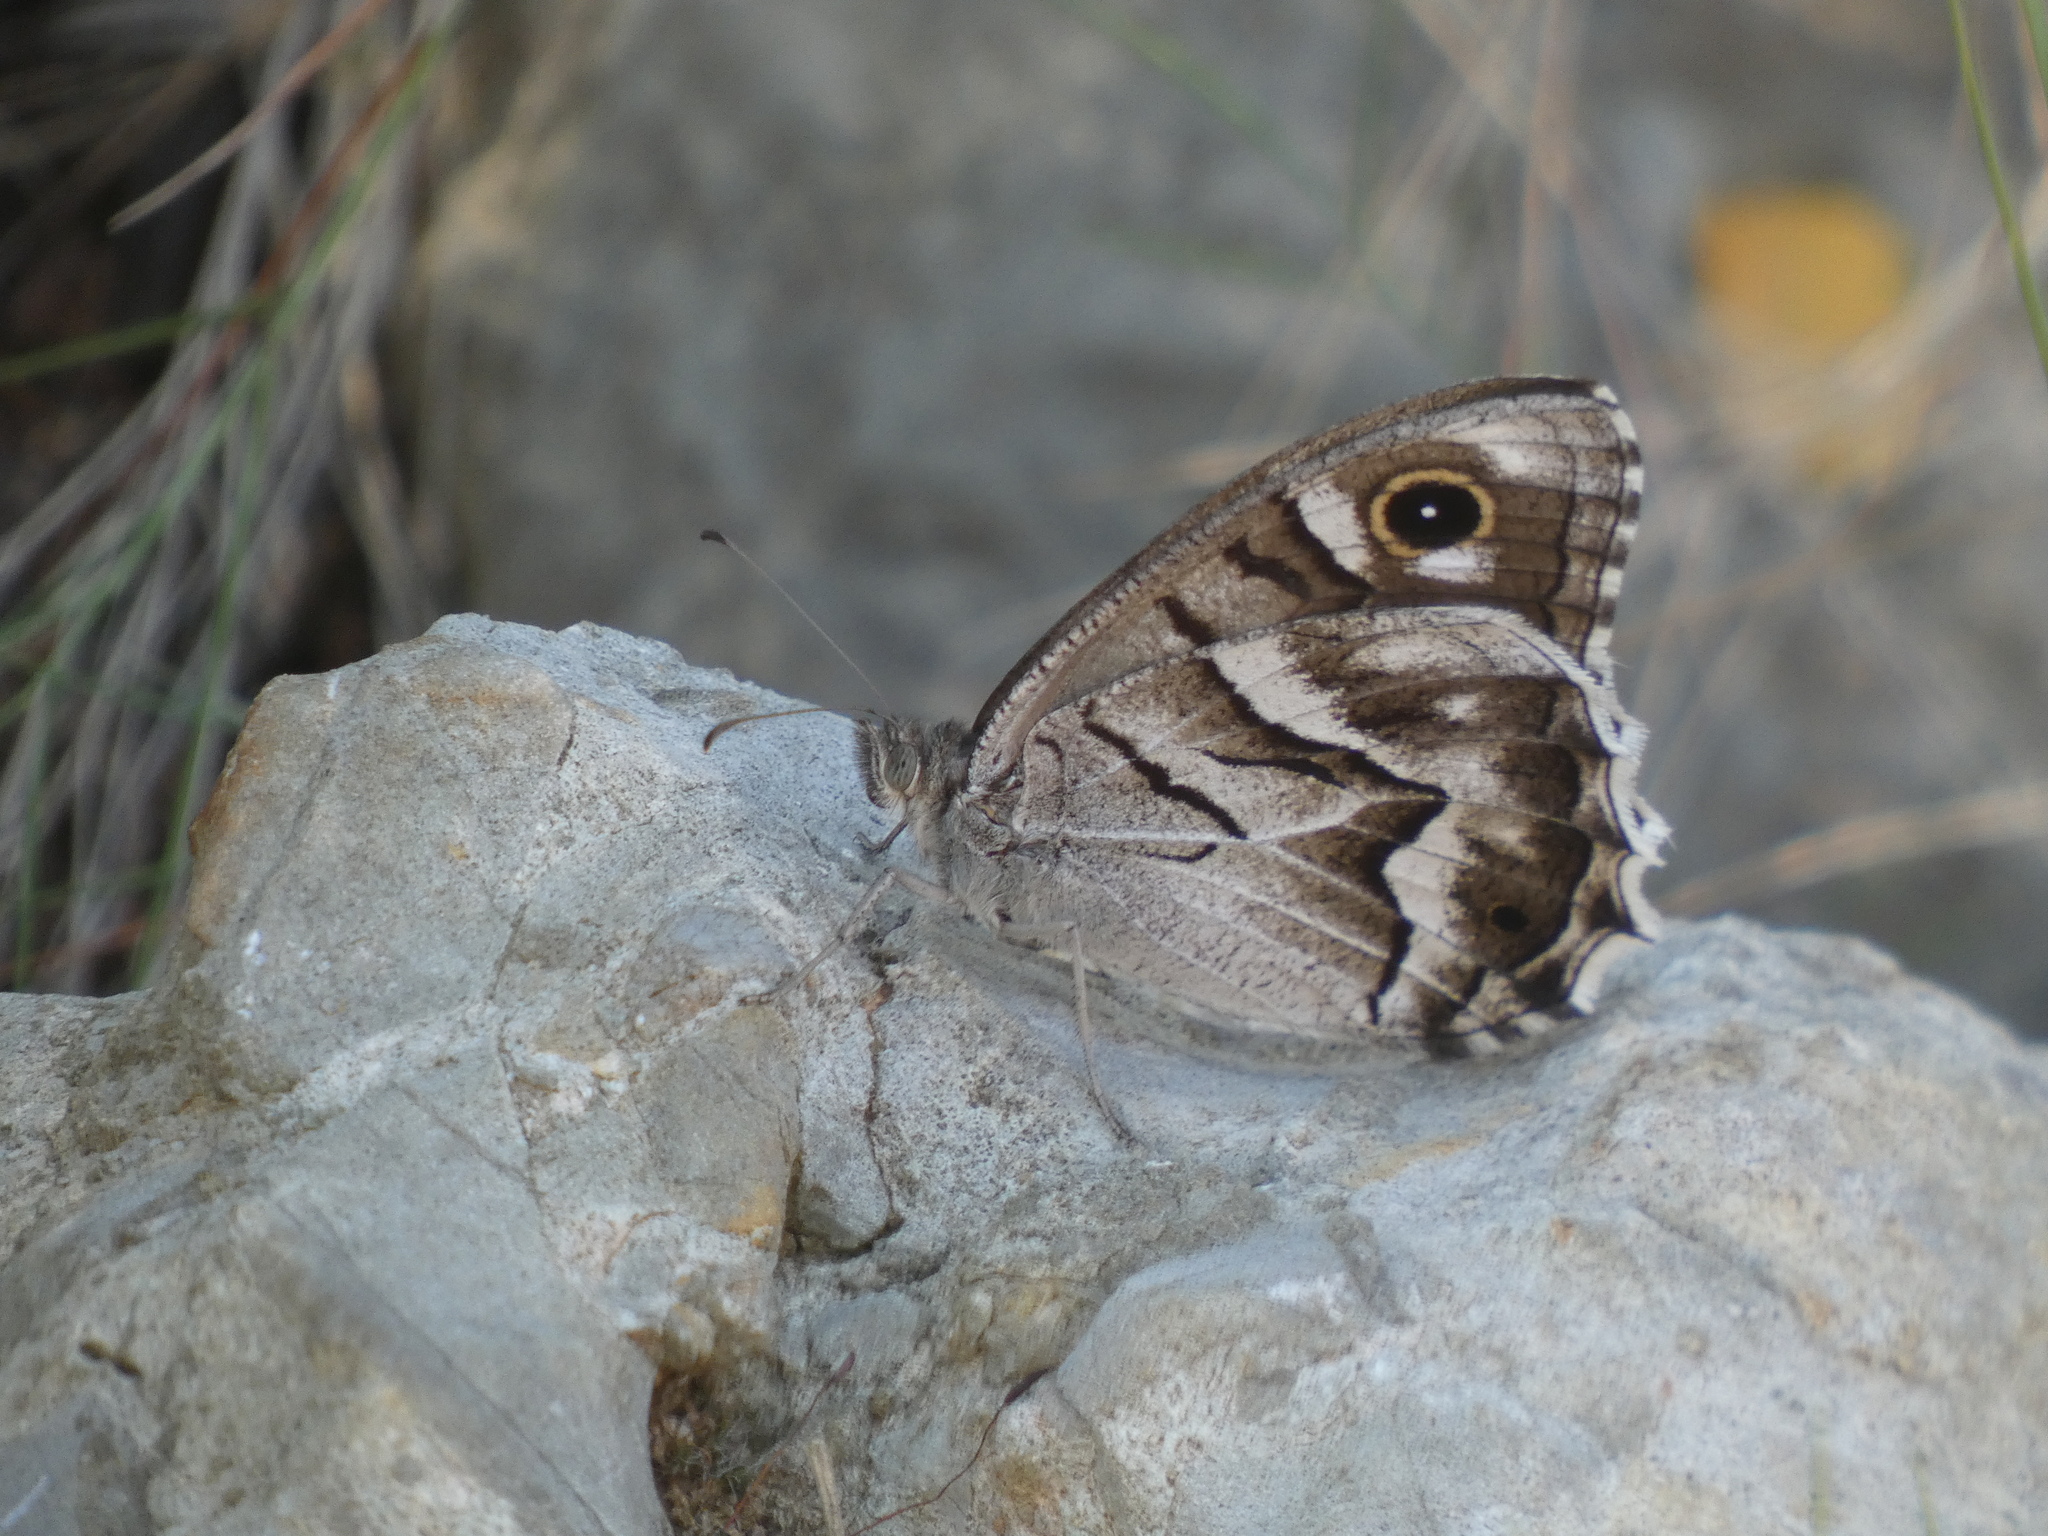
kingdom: Animalia
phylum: Arthropoda
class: Insecta
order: Lepidoptera
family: Nymphalidae
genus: Hipparchia
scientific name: Hipparchia fidia
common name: Striped grayling
